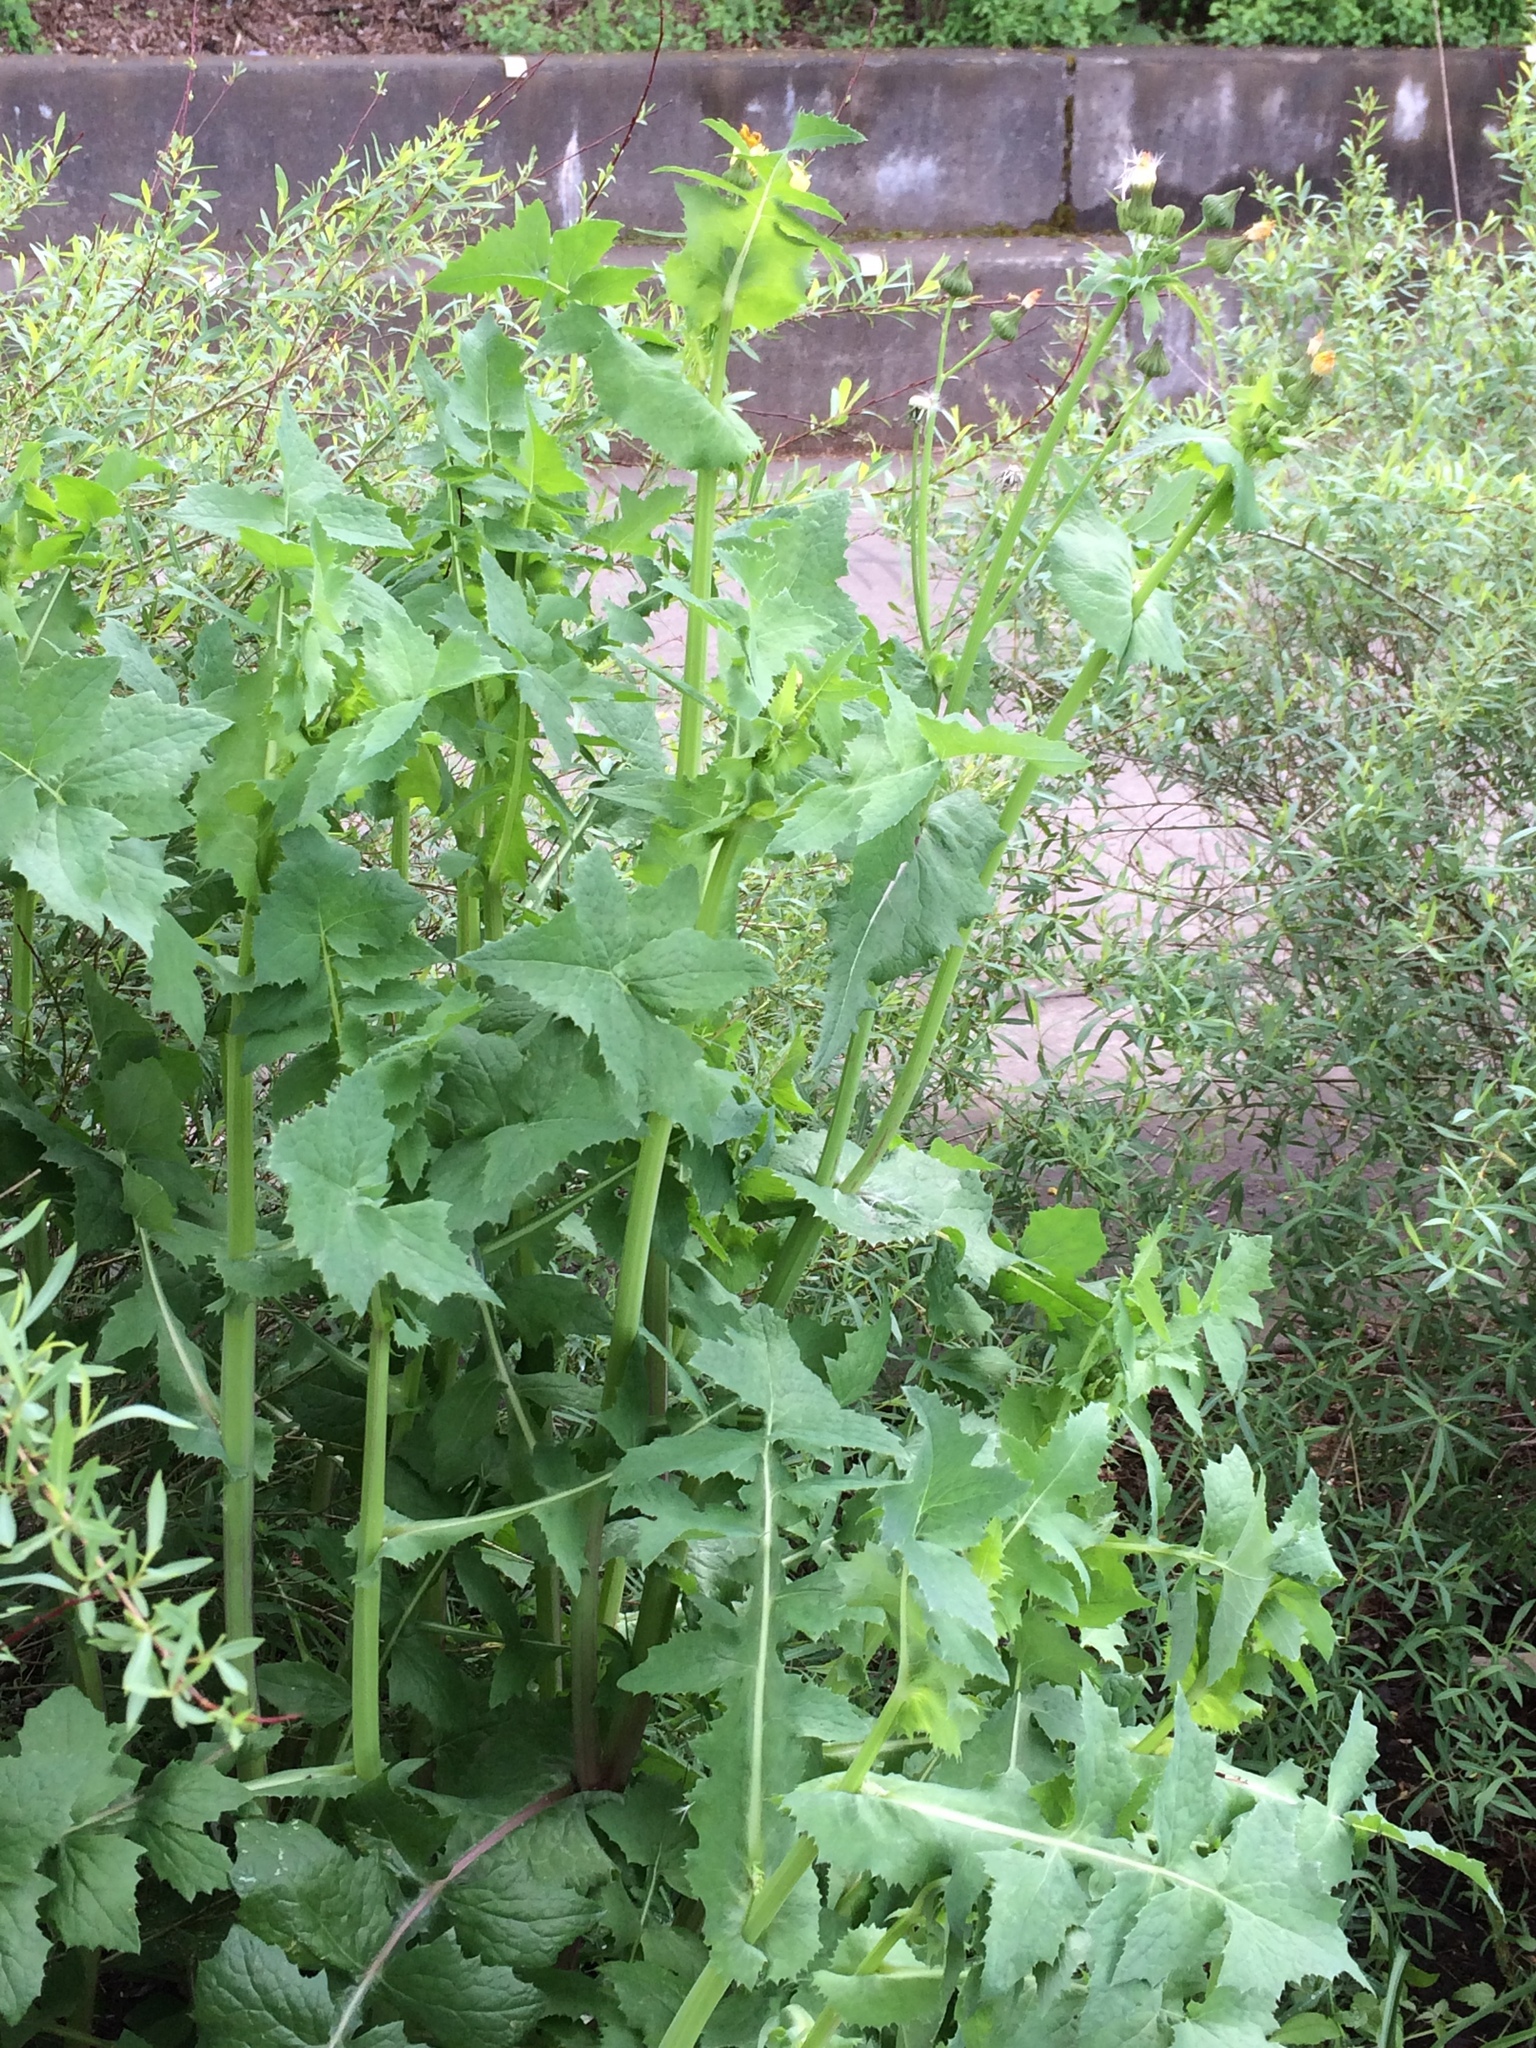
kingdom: Plantae
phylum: Tracheophyta
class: Magnoliopsida
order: Asterales
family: Asteraceae
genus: Sonchus
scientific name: Sonchus oleraceus
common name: Common sowthistle
